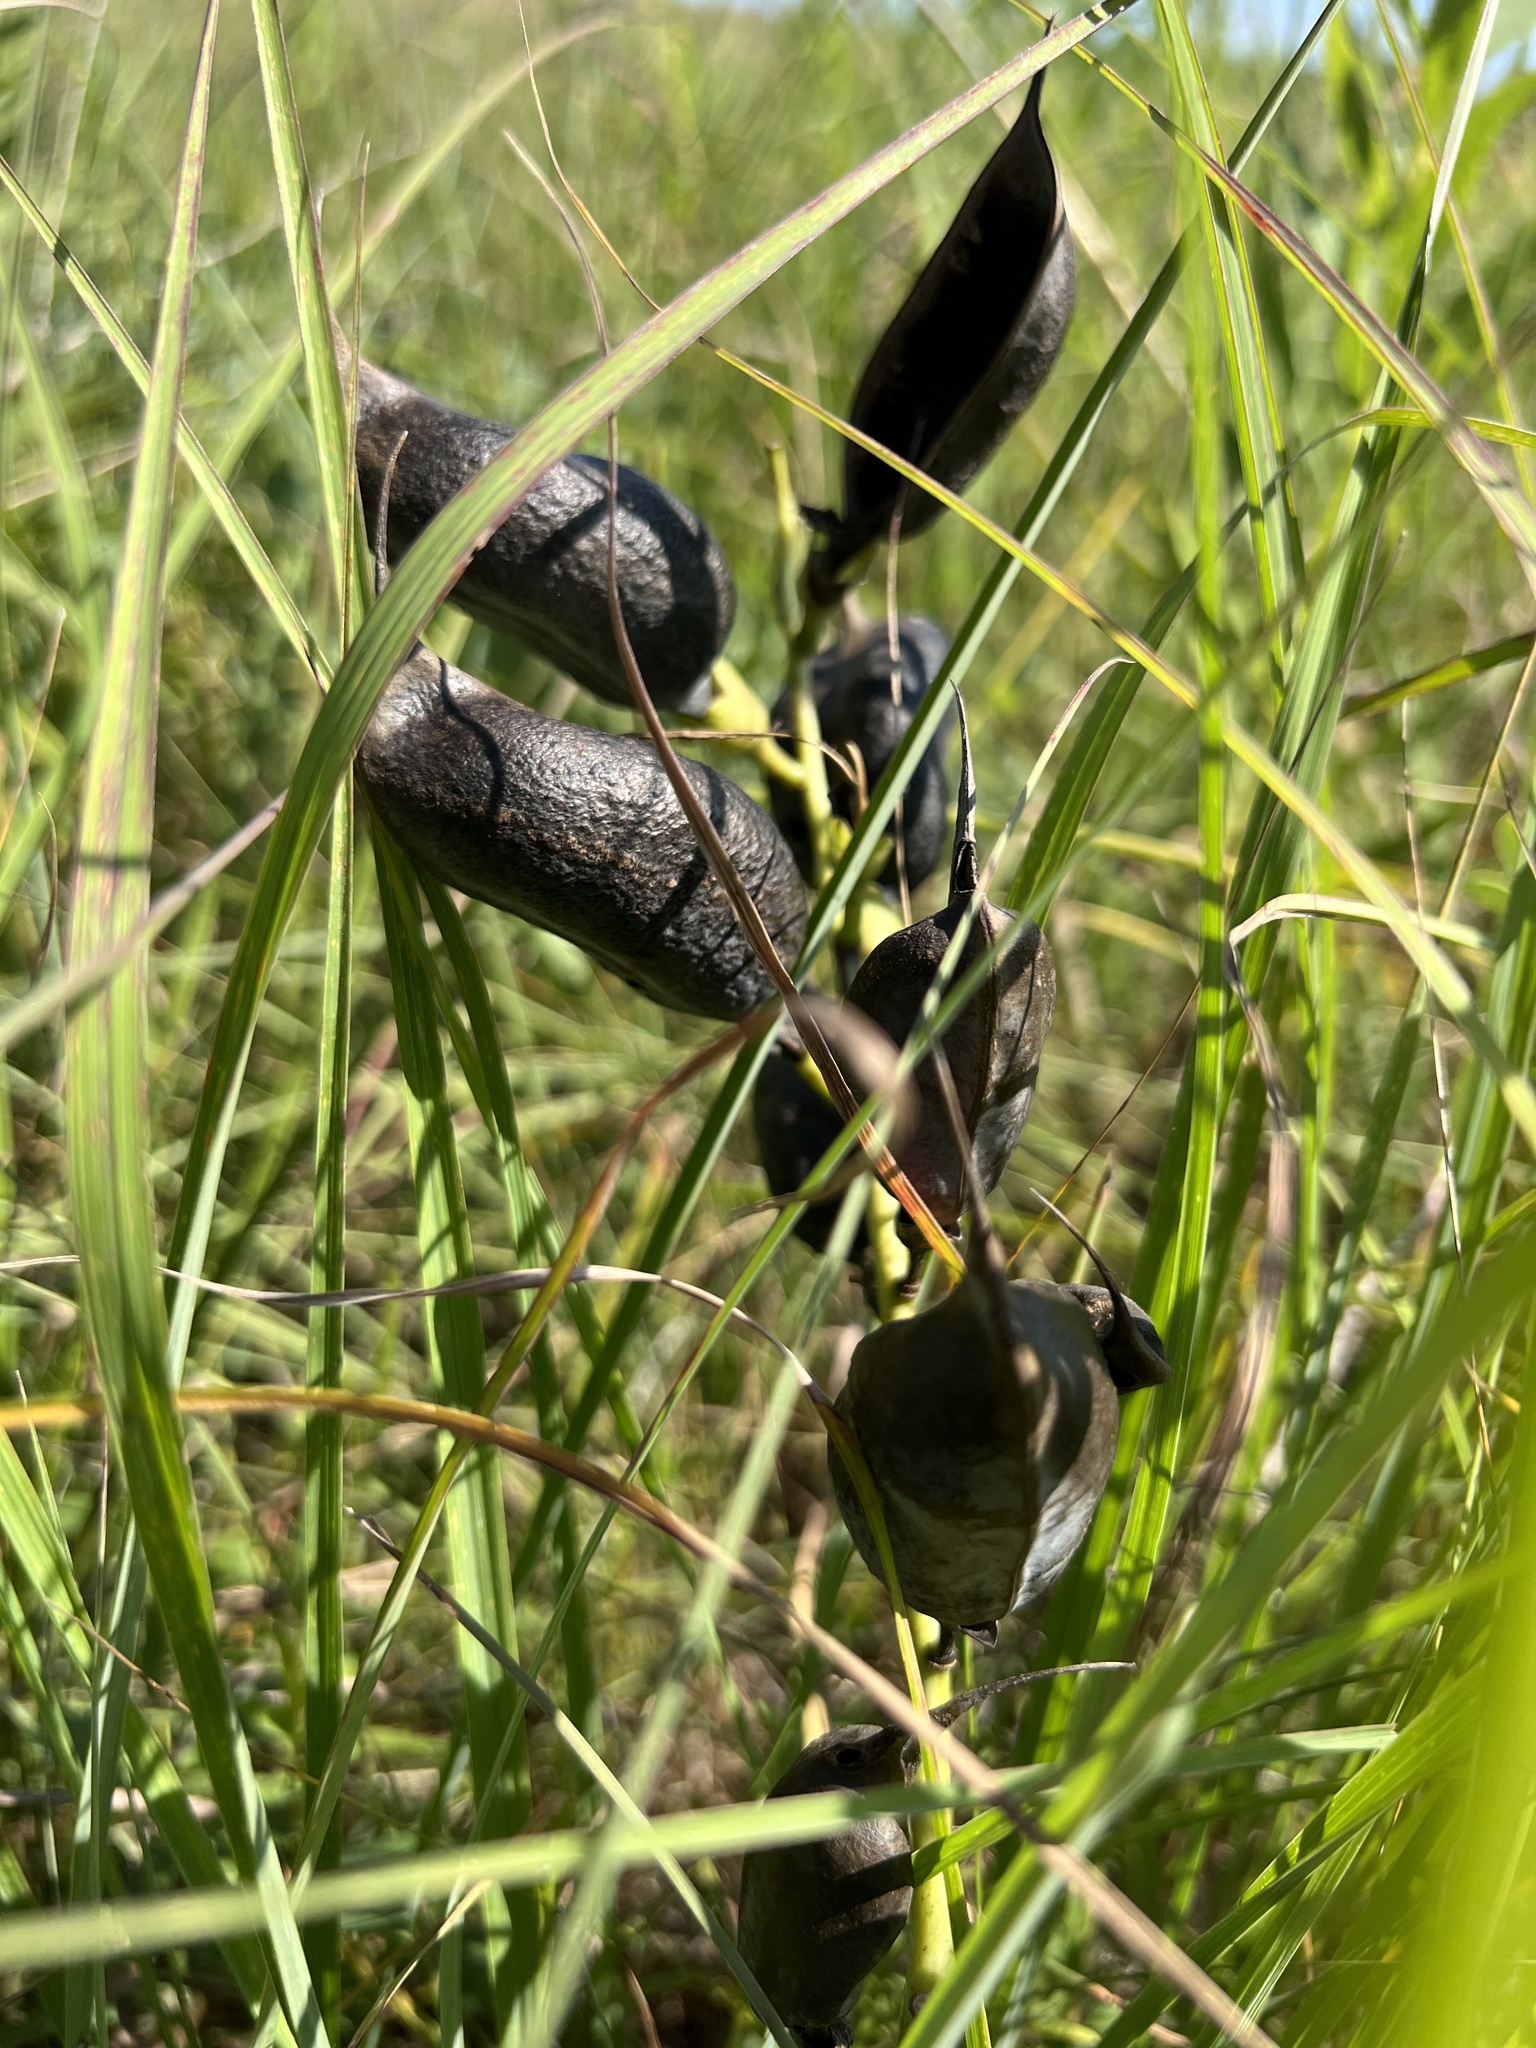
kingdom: Plantae
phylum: Tracheophyta
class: Magnoliopsida
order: Fabales
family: Fabaceae
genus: Baptisia
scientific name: Baptisia australis
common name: Blue false indigo
